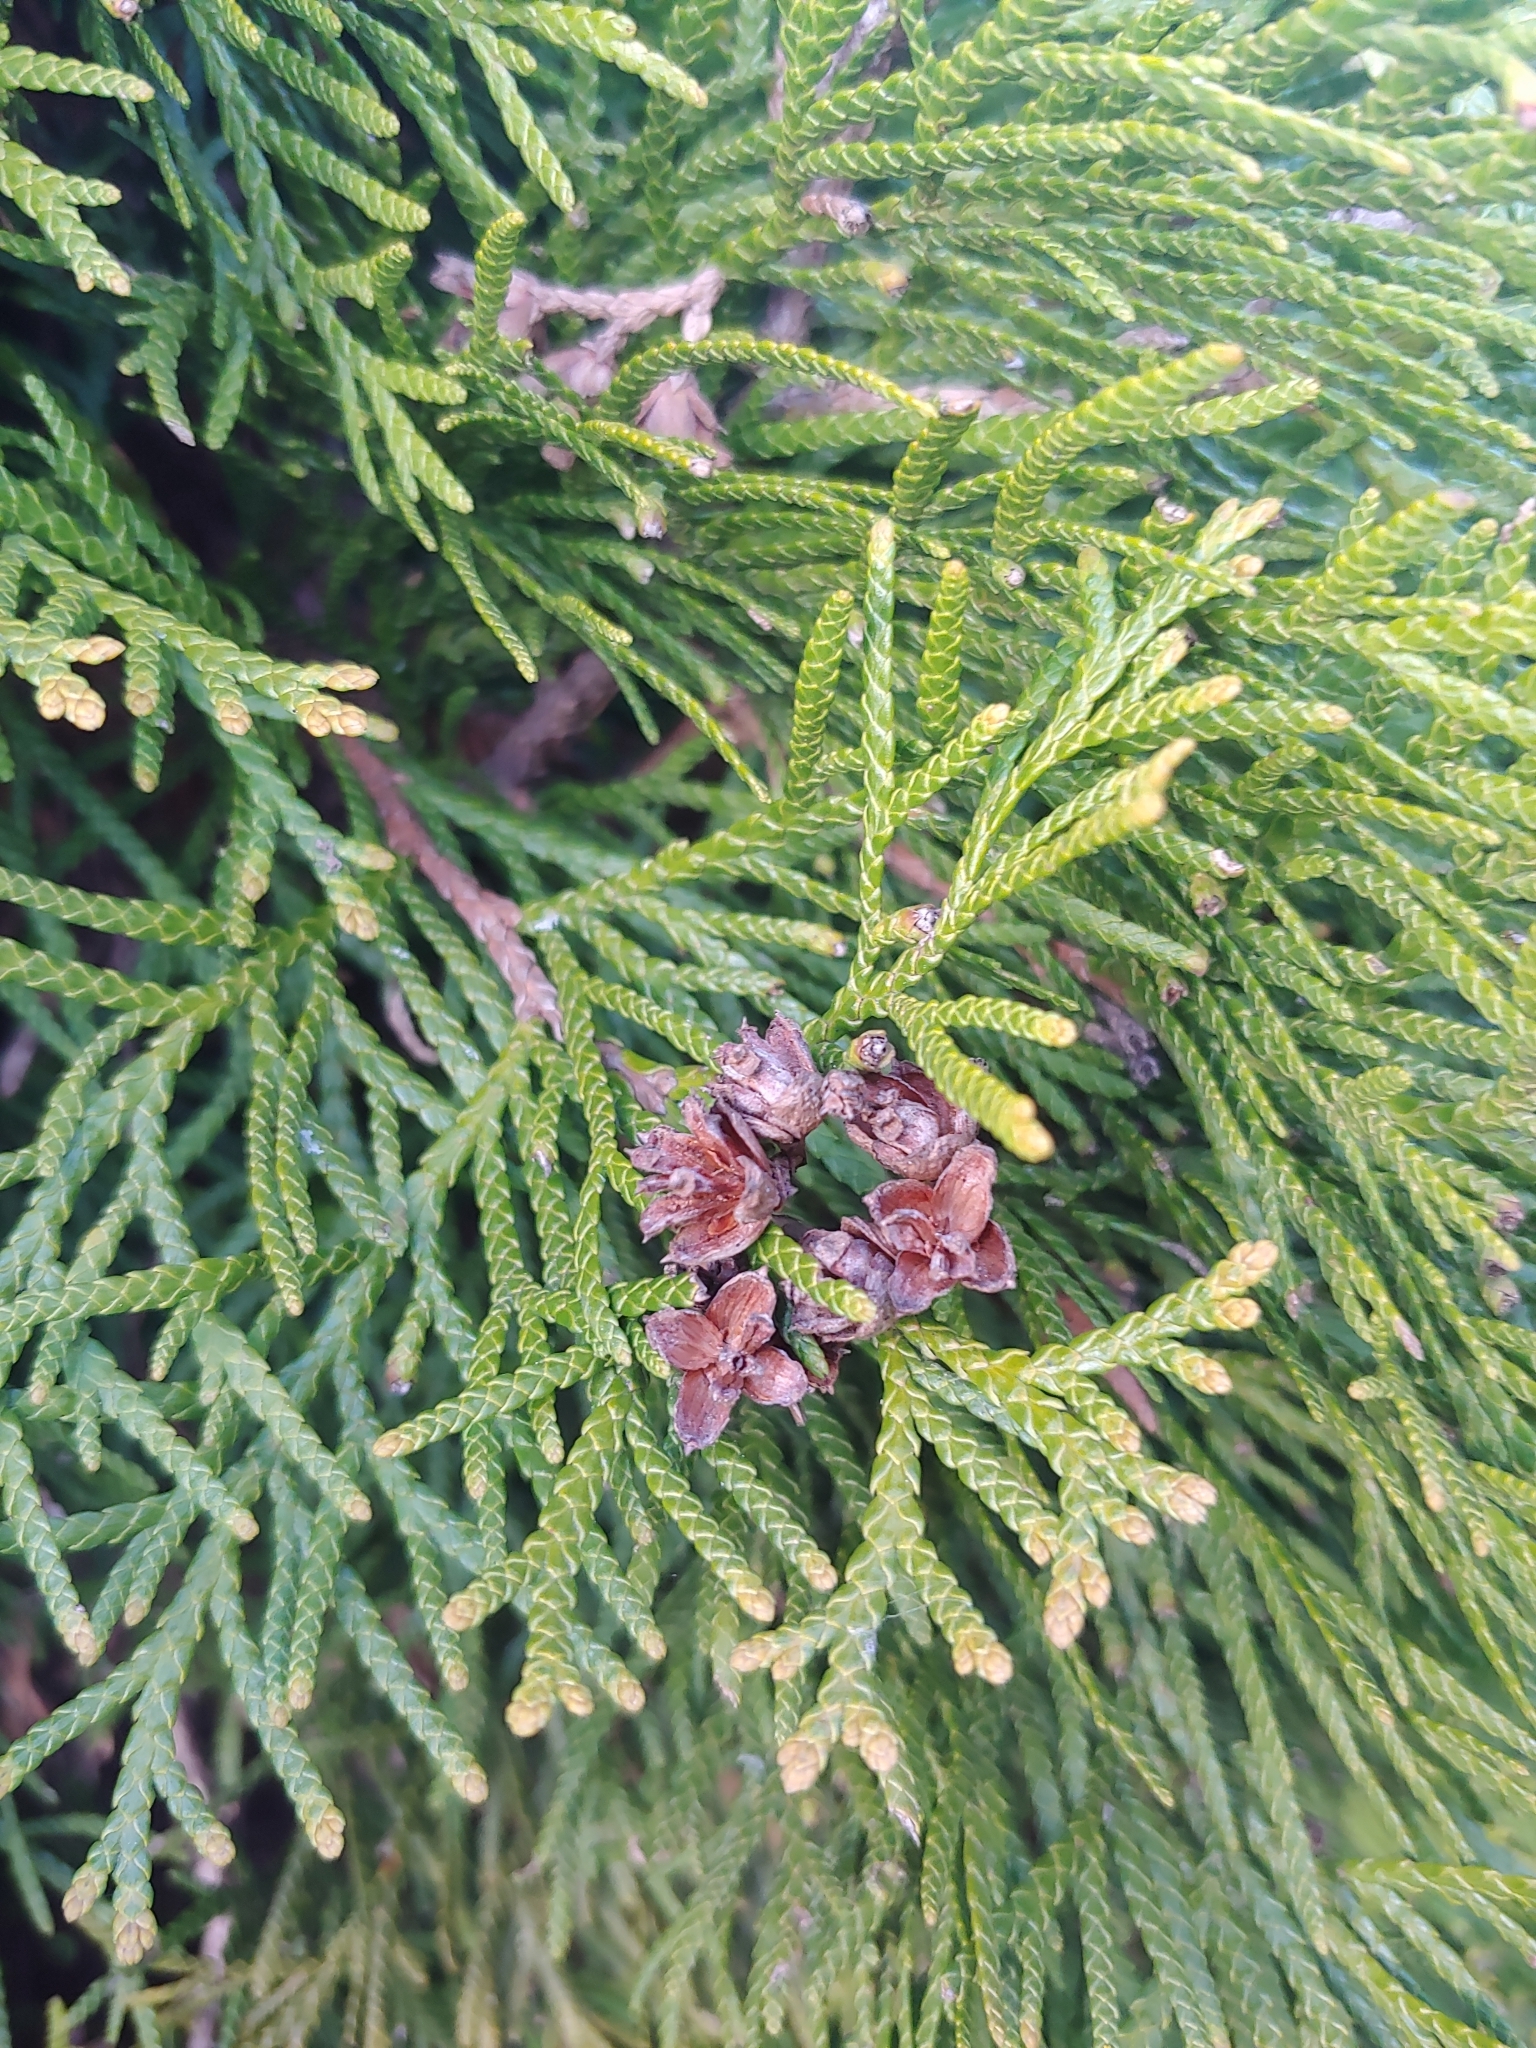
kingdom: Plantae
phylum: Tracheophyta
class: Pinopsida
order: Pinales
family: Cupressaceae
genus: Thuja
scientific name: Thuja plicata
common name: Western red-cedar
